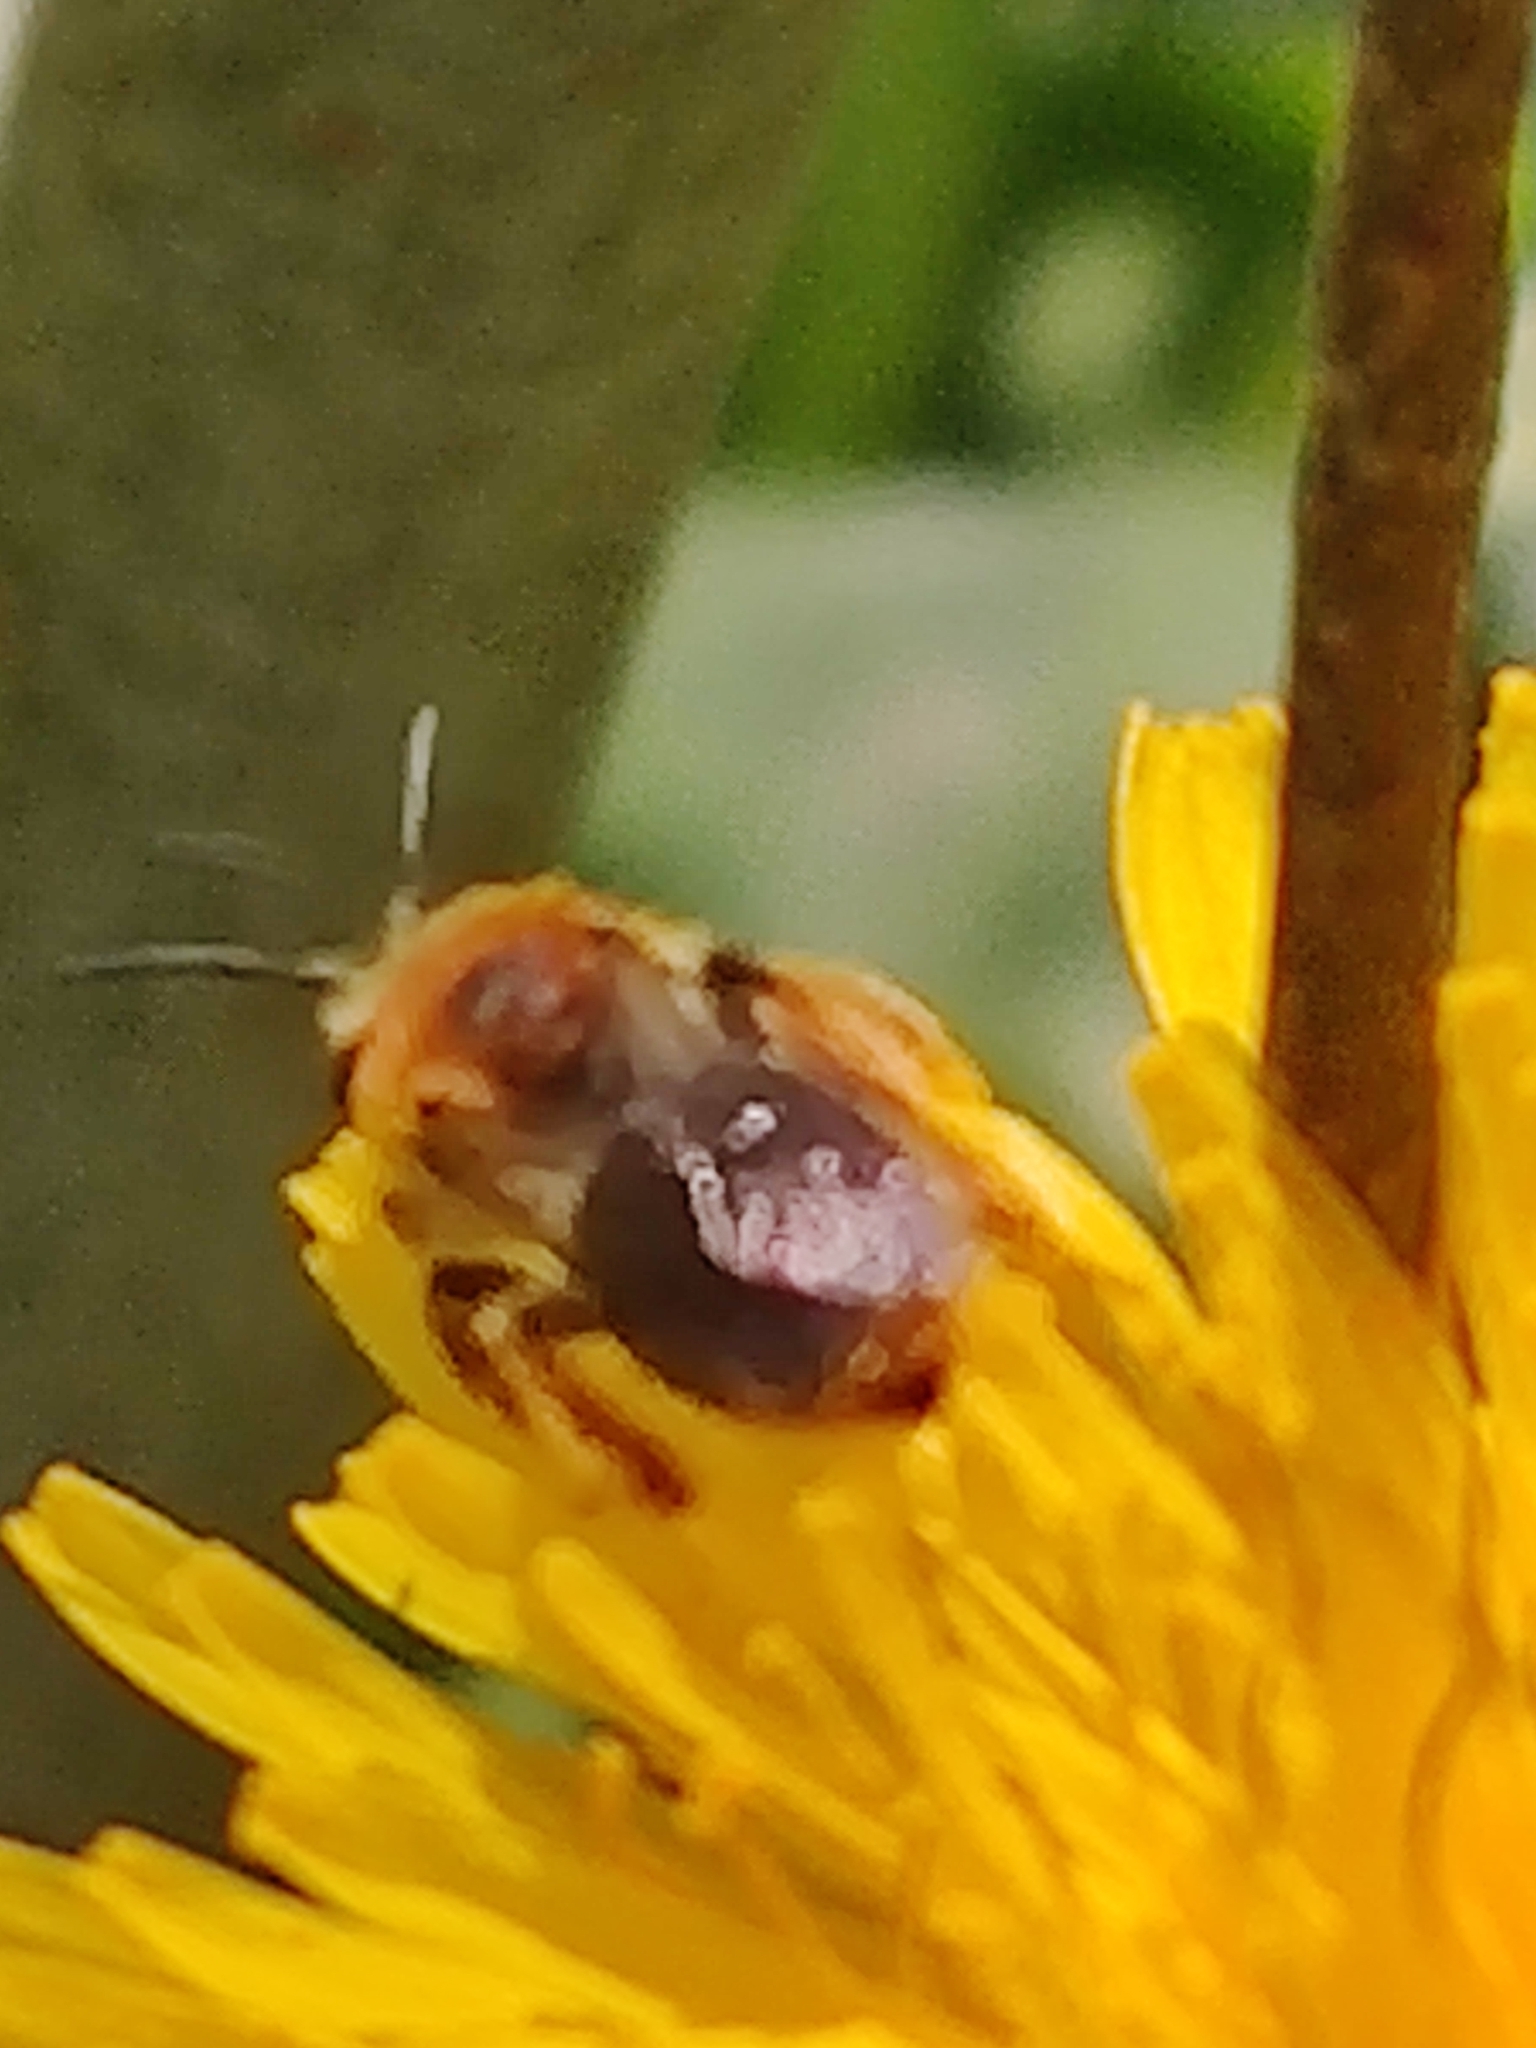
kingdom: Animalia
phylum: Arthropoda
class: Insecta
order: Hymenoptera
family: Andrenidae
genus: Andrena
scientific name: Andrena haemorrhoa
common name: Early mining bee
